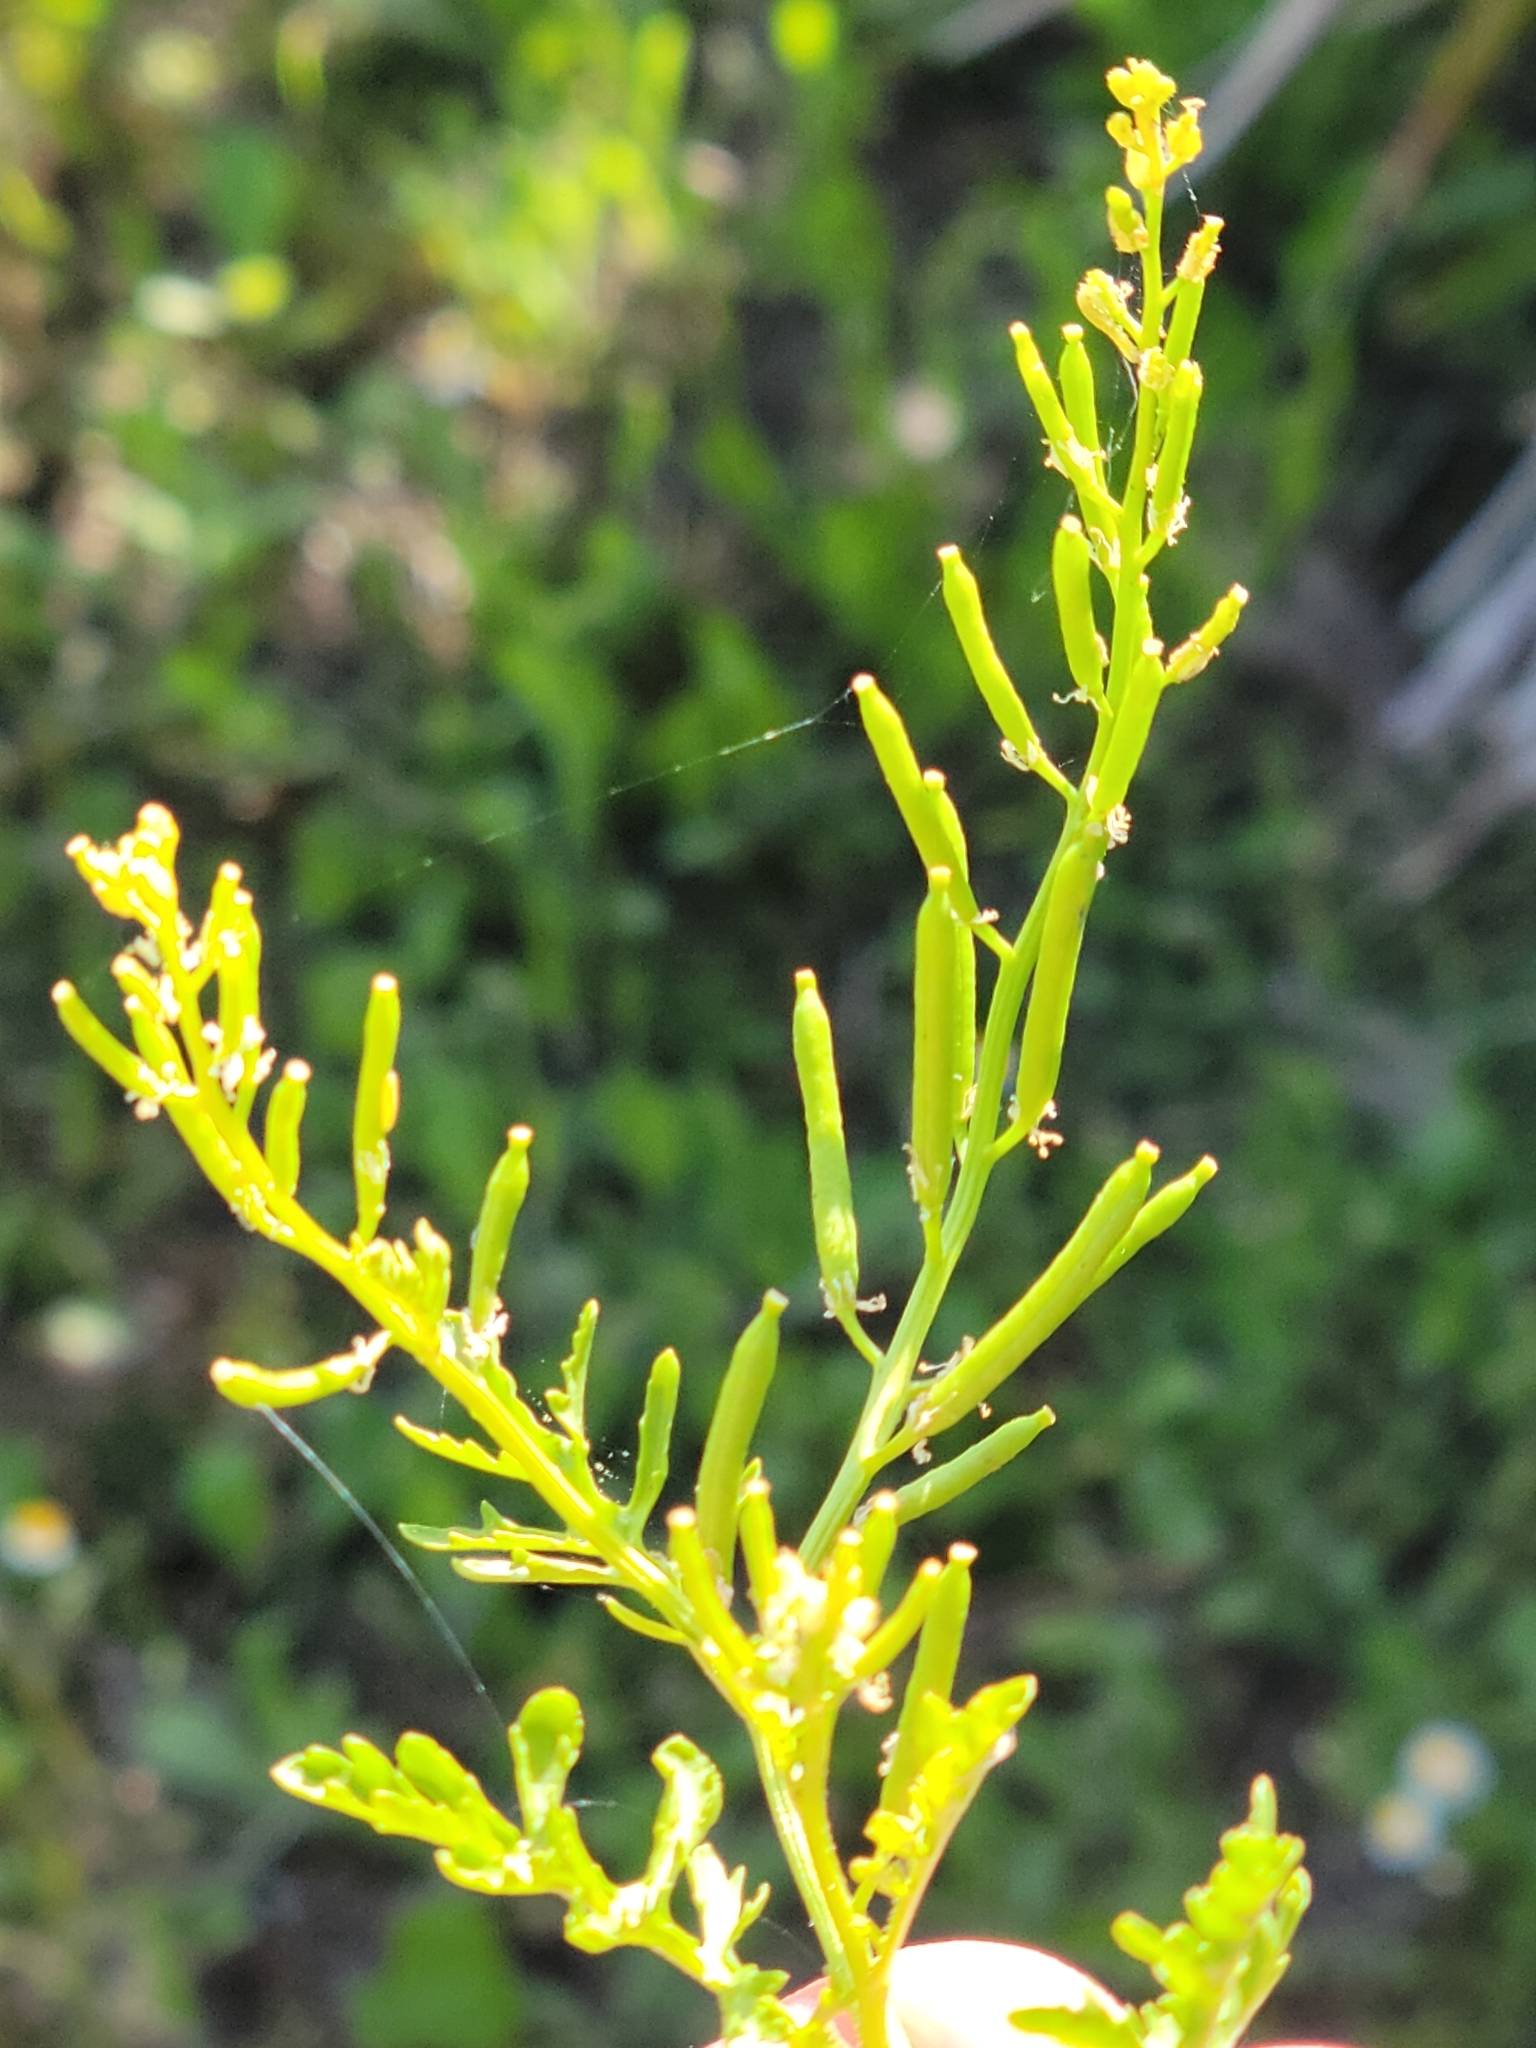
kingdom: Plantae
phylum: Tracheophyta
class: Magnoliopsida
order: Brassicales
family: Brassicaceae
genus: Rorippa
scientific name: Rorippa teres
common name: Southern marsh yellowcress
